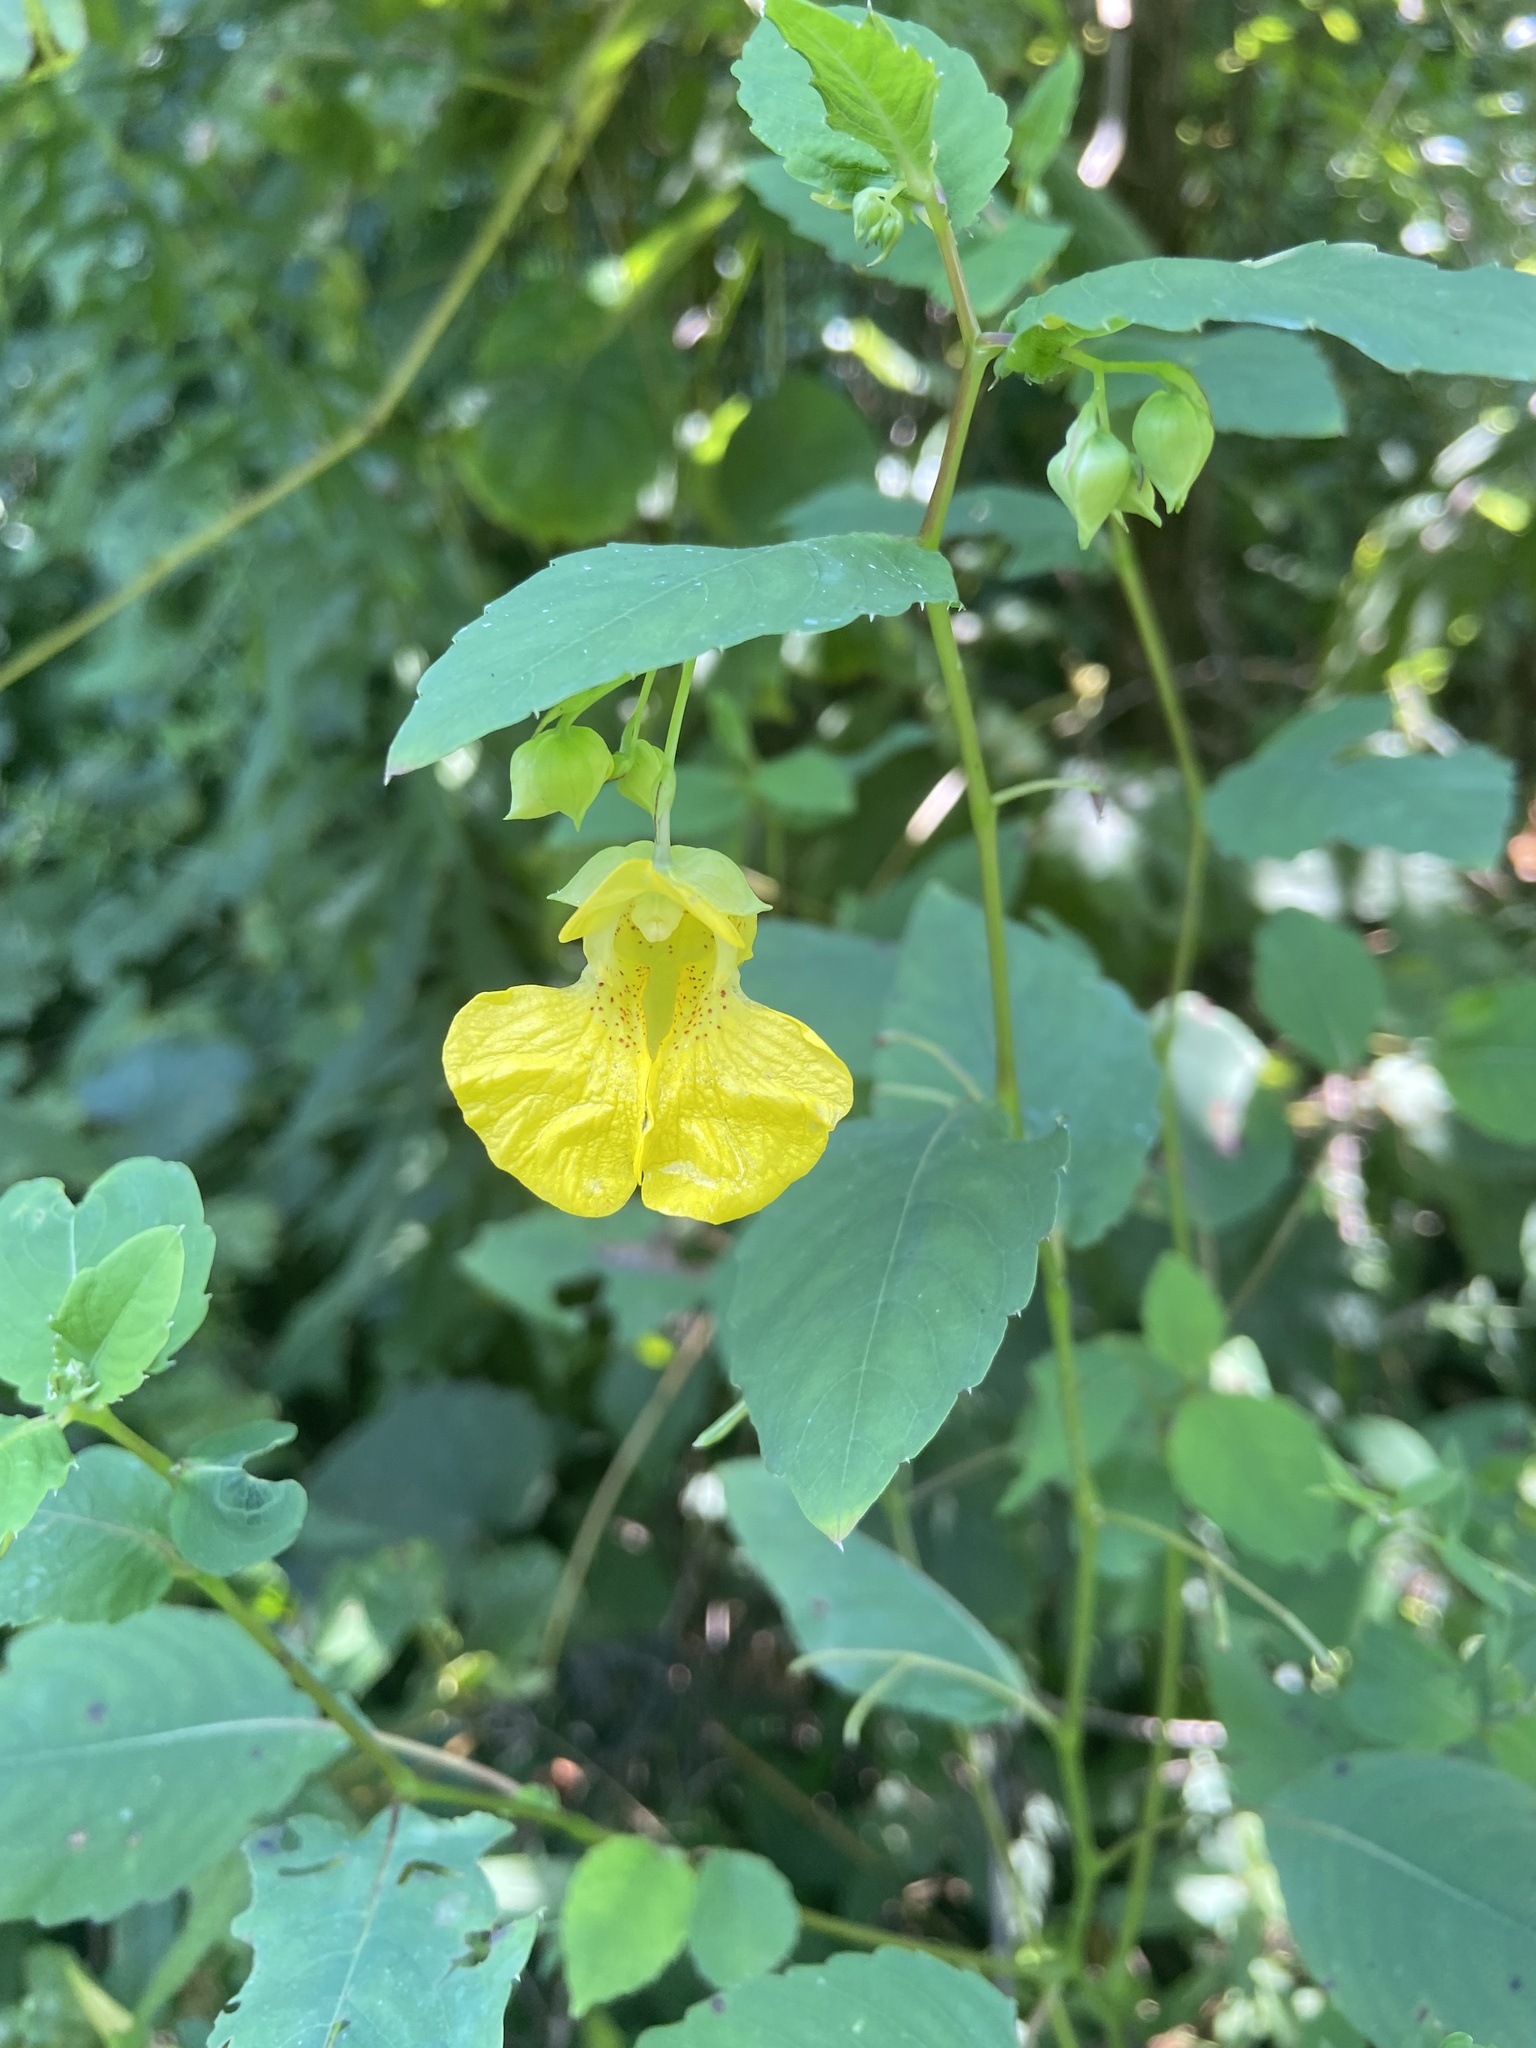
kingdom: Plantae
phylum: Tracheophyta
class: Magnoliopsida
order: Ericales
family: Balsaminaceae
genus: Impatiens
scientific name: Impatiens pallida
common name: Pale snapweed
